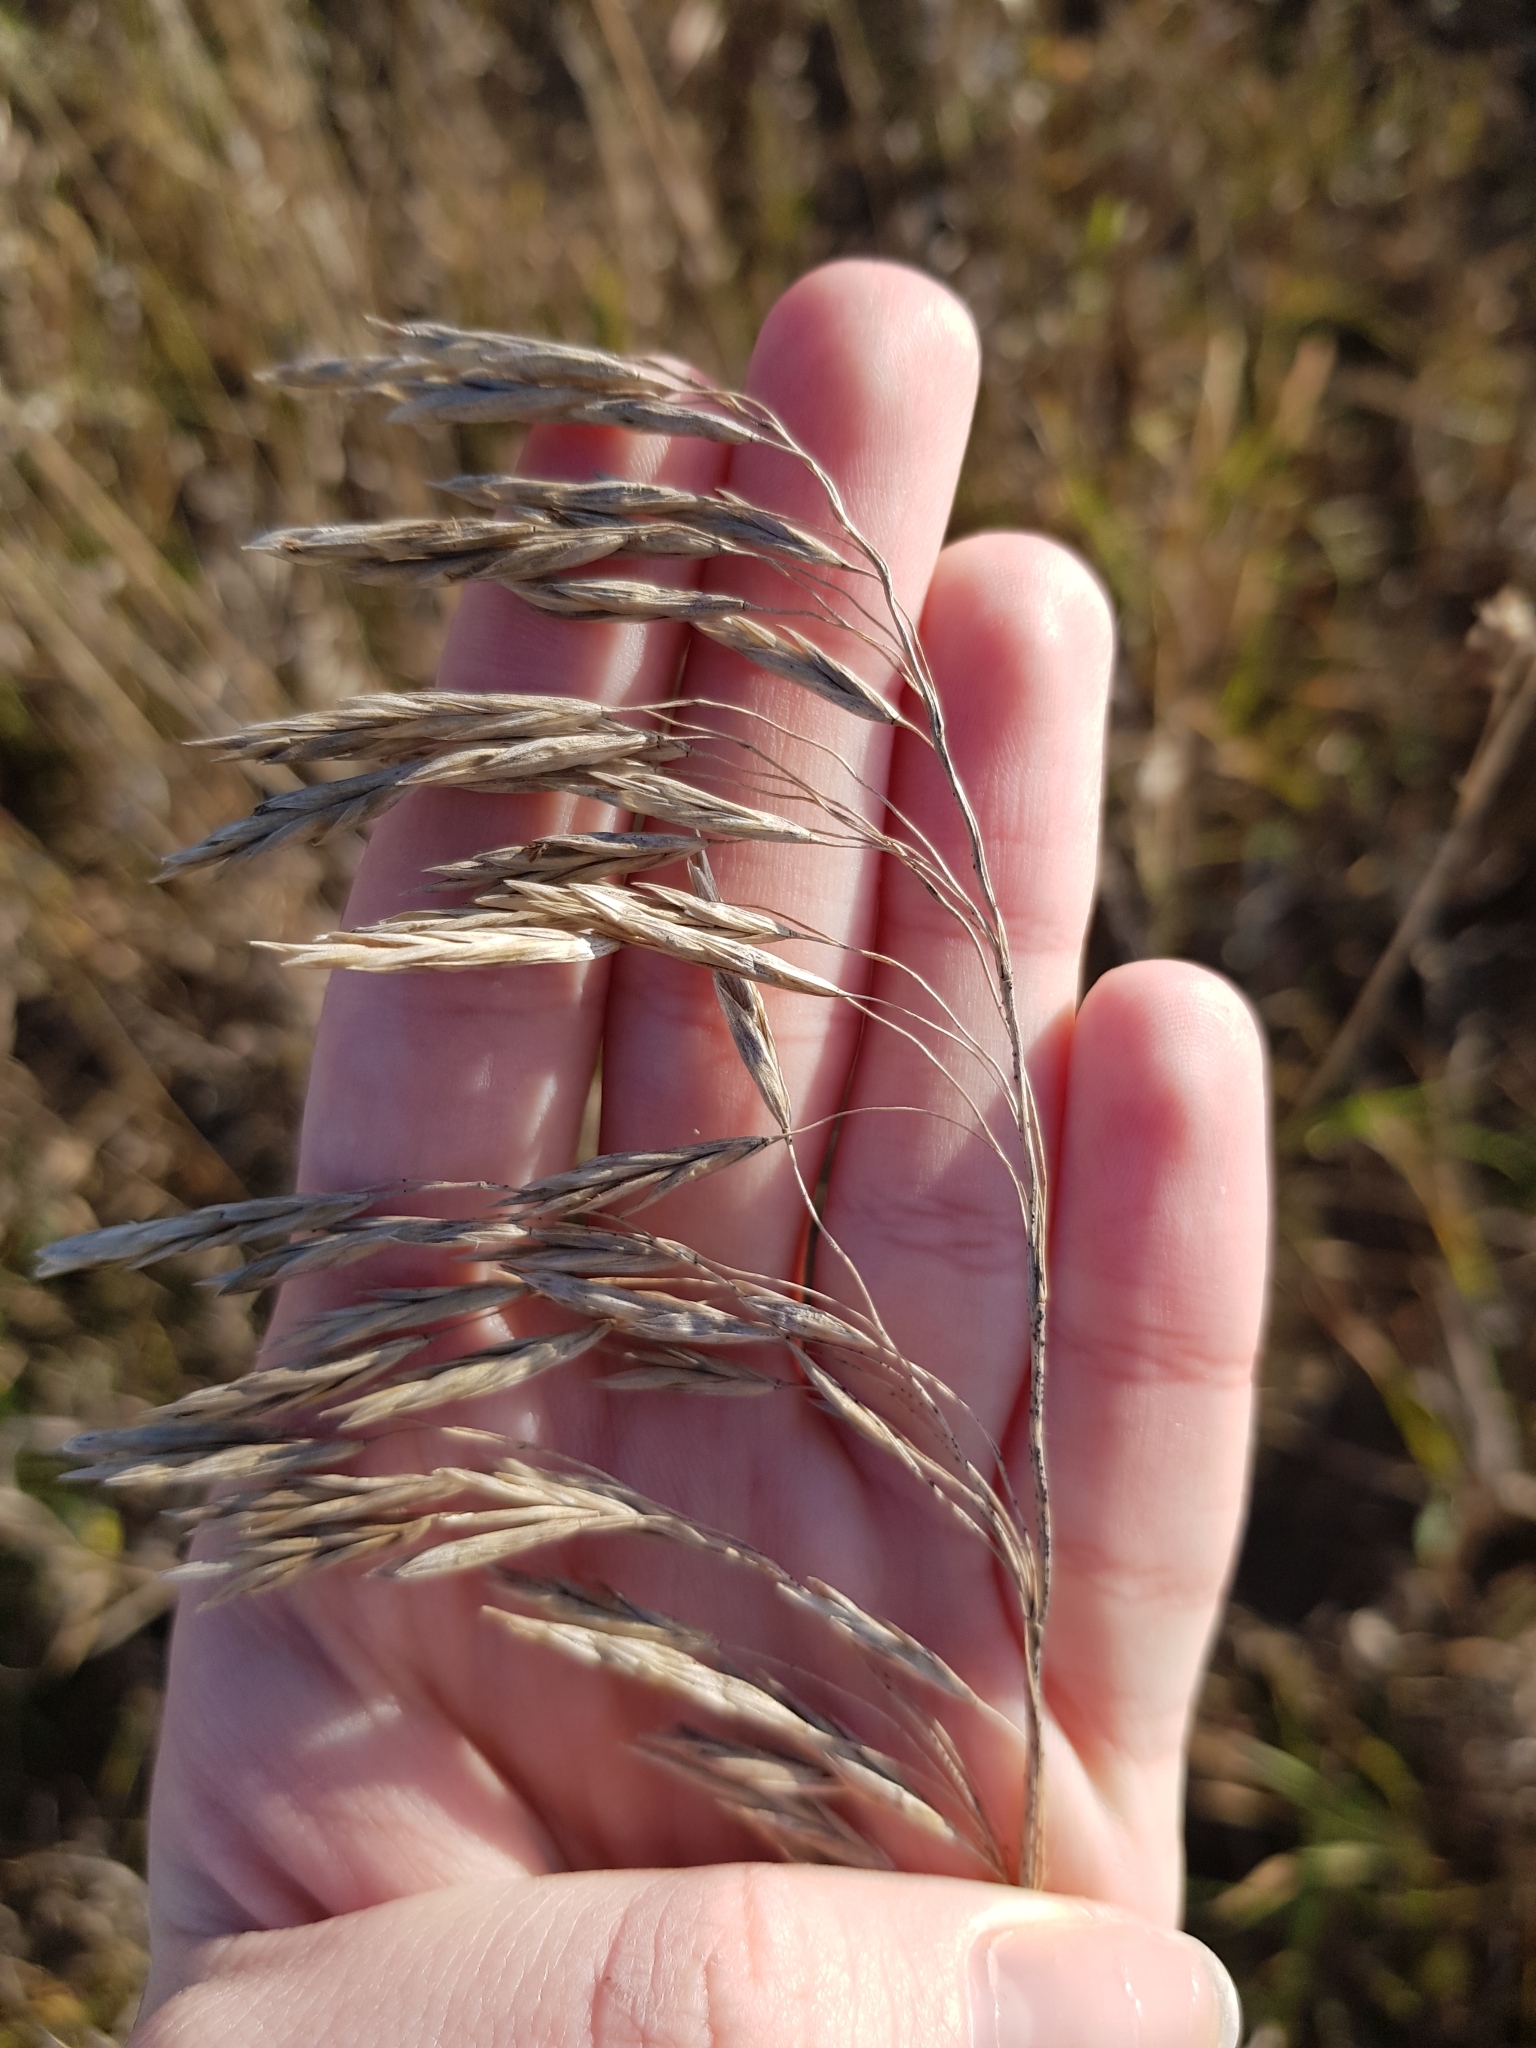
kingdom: Plantae
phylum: Tracheophyta
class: Liliopsida
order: Poales
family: Poaceae
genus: Bromus
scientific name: Bromus inermis
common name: Smooth brome
